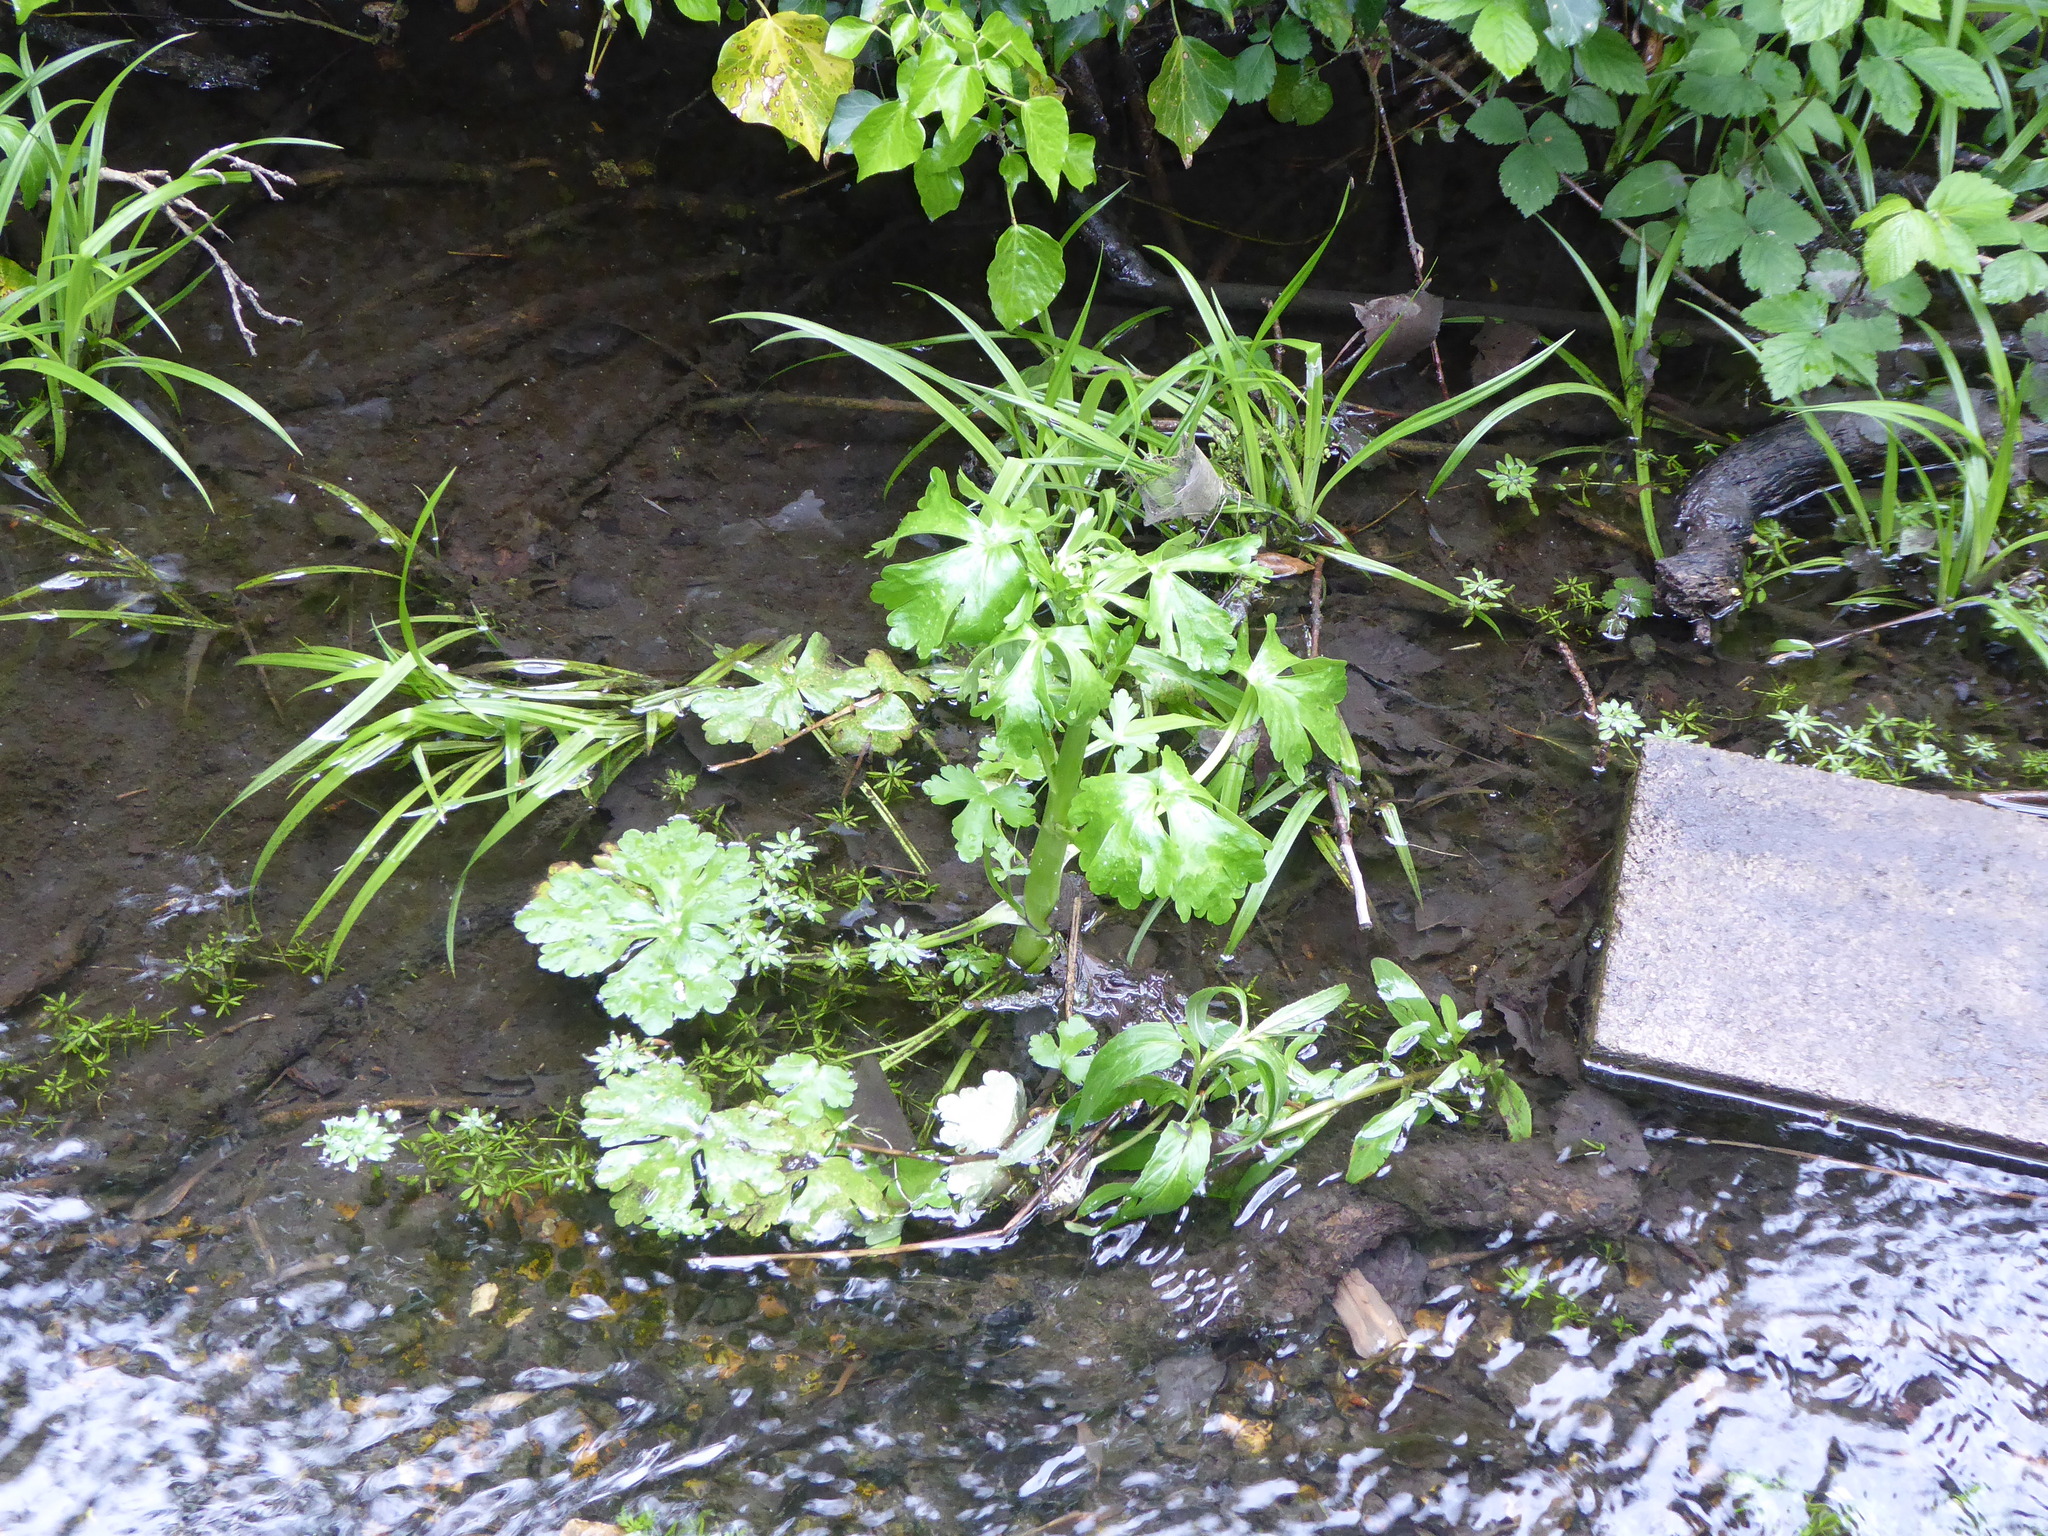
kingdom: Plantae
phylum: Tracheophyta
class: Magnoliopsida
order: Ranunculales
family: Ranunculaceae
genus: Ranunculus
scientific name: Ranunculus sceleratus
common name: Celery-leaved buttercup
